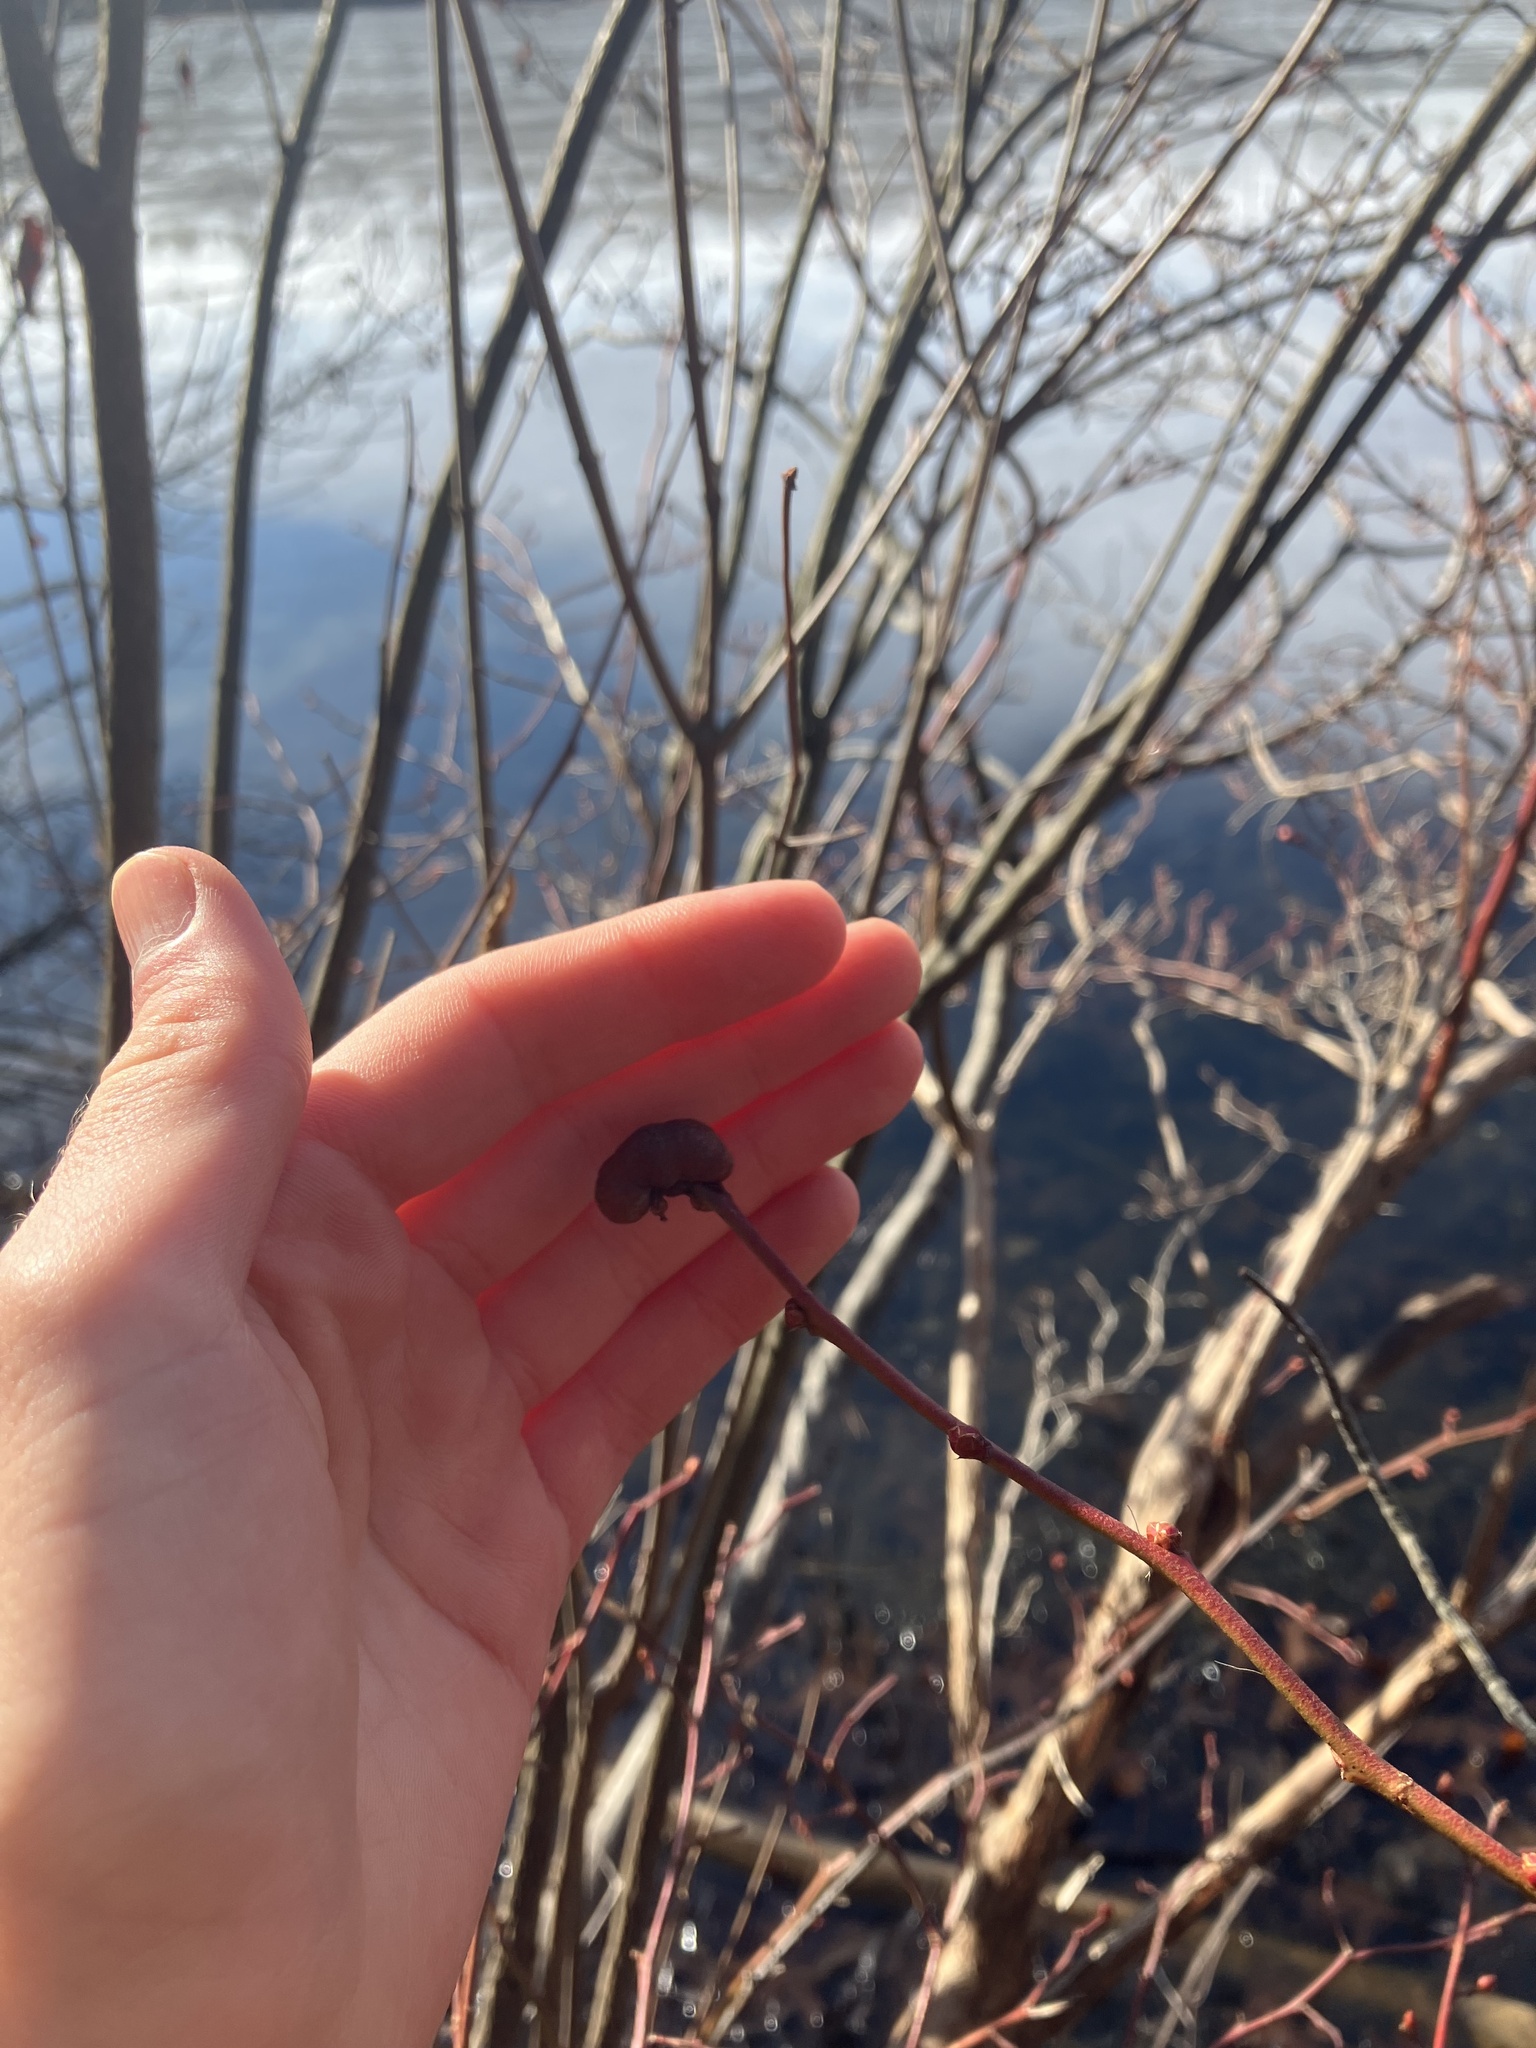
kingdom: Plantae
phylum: Tracheophyta
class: Magnoliopsida
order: Ericales
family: Ericaceae
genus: Vaccinium
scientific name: Vaccinium corymbosum
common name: Blueberry
